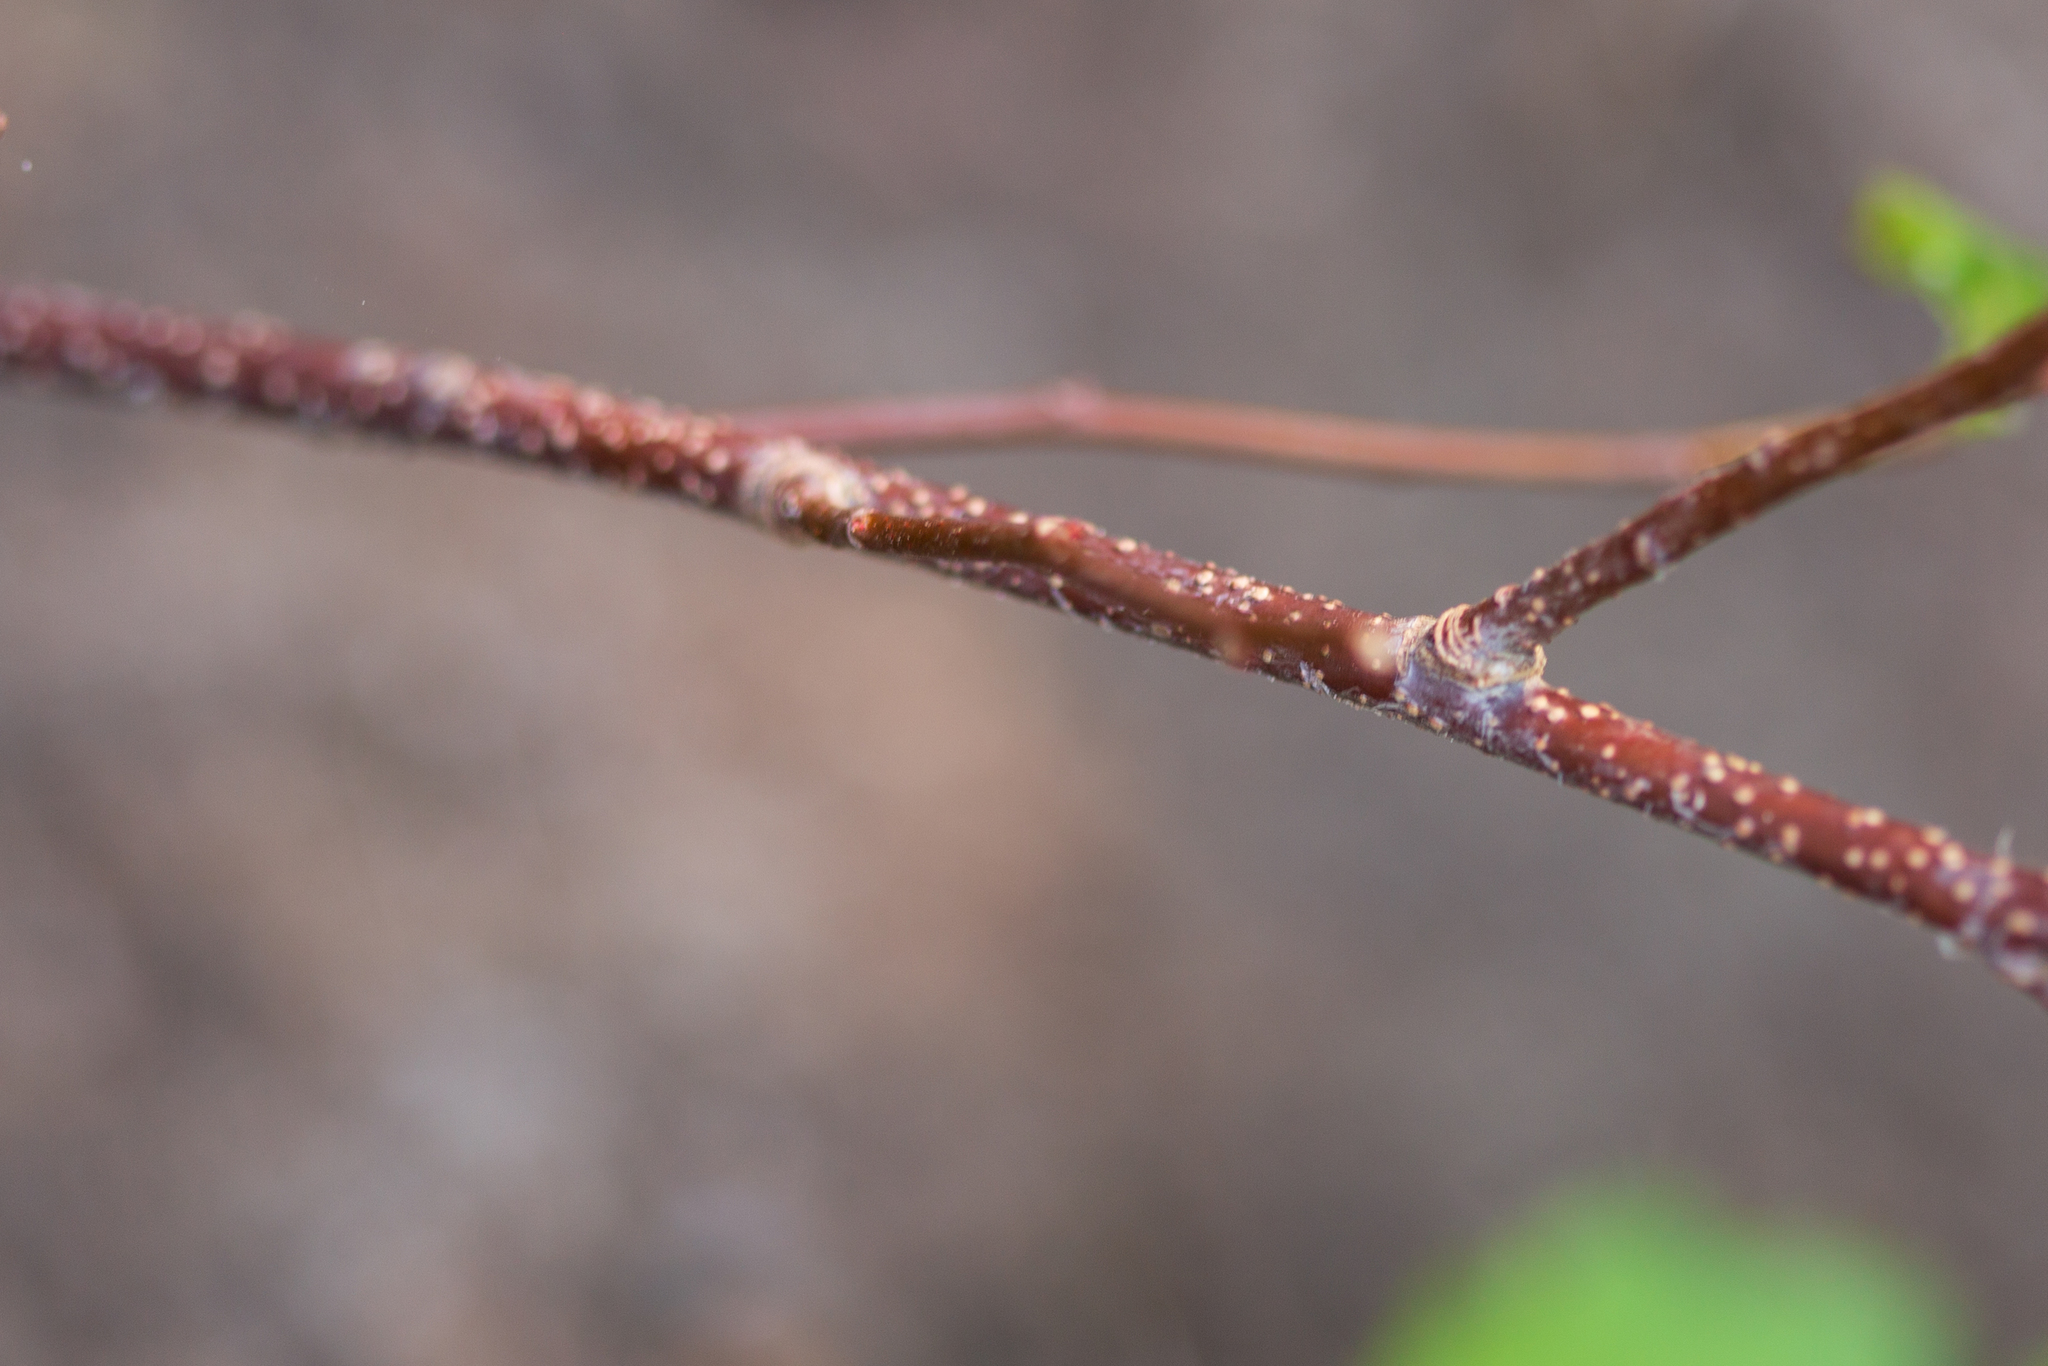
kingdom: Plantae
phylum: Tracheophyta
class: Magnoliopsida
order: Rosales
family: Rosaceae
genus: Oemleria
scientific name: Oemleria cerasiformis
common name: Osoberry
